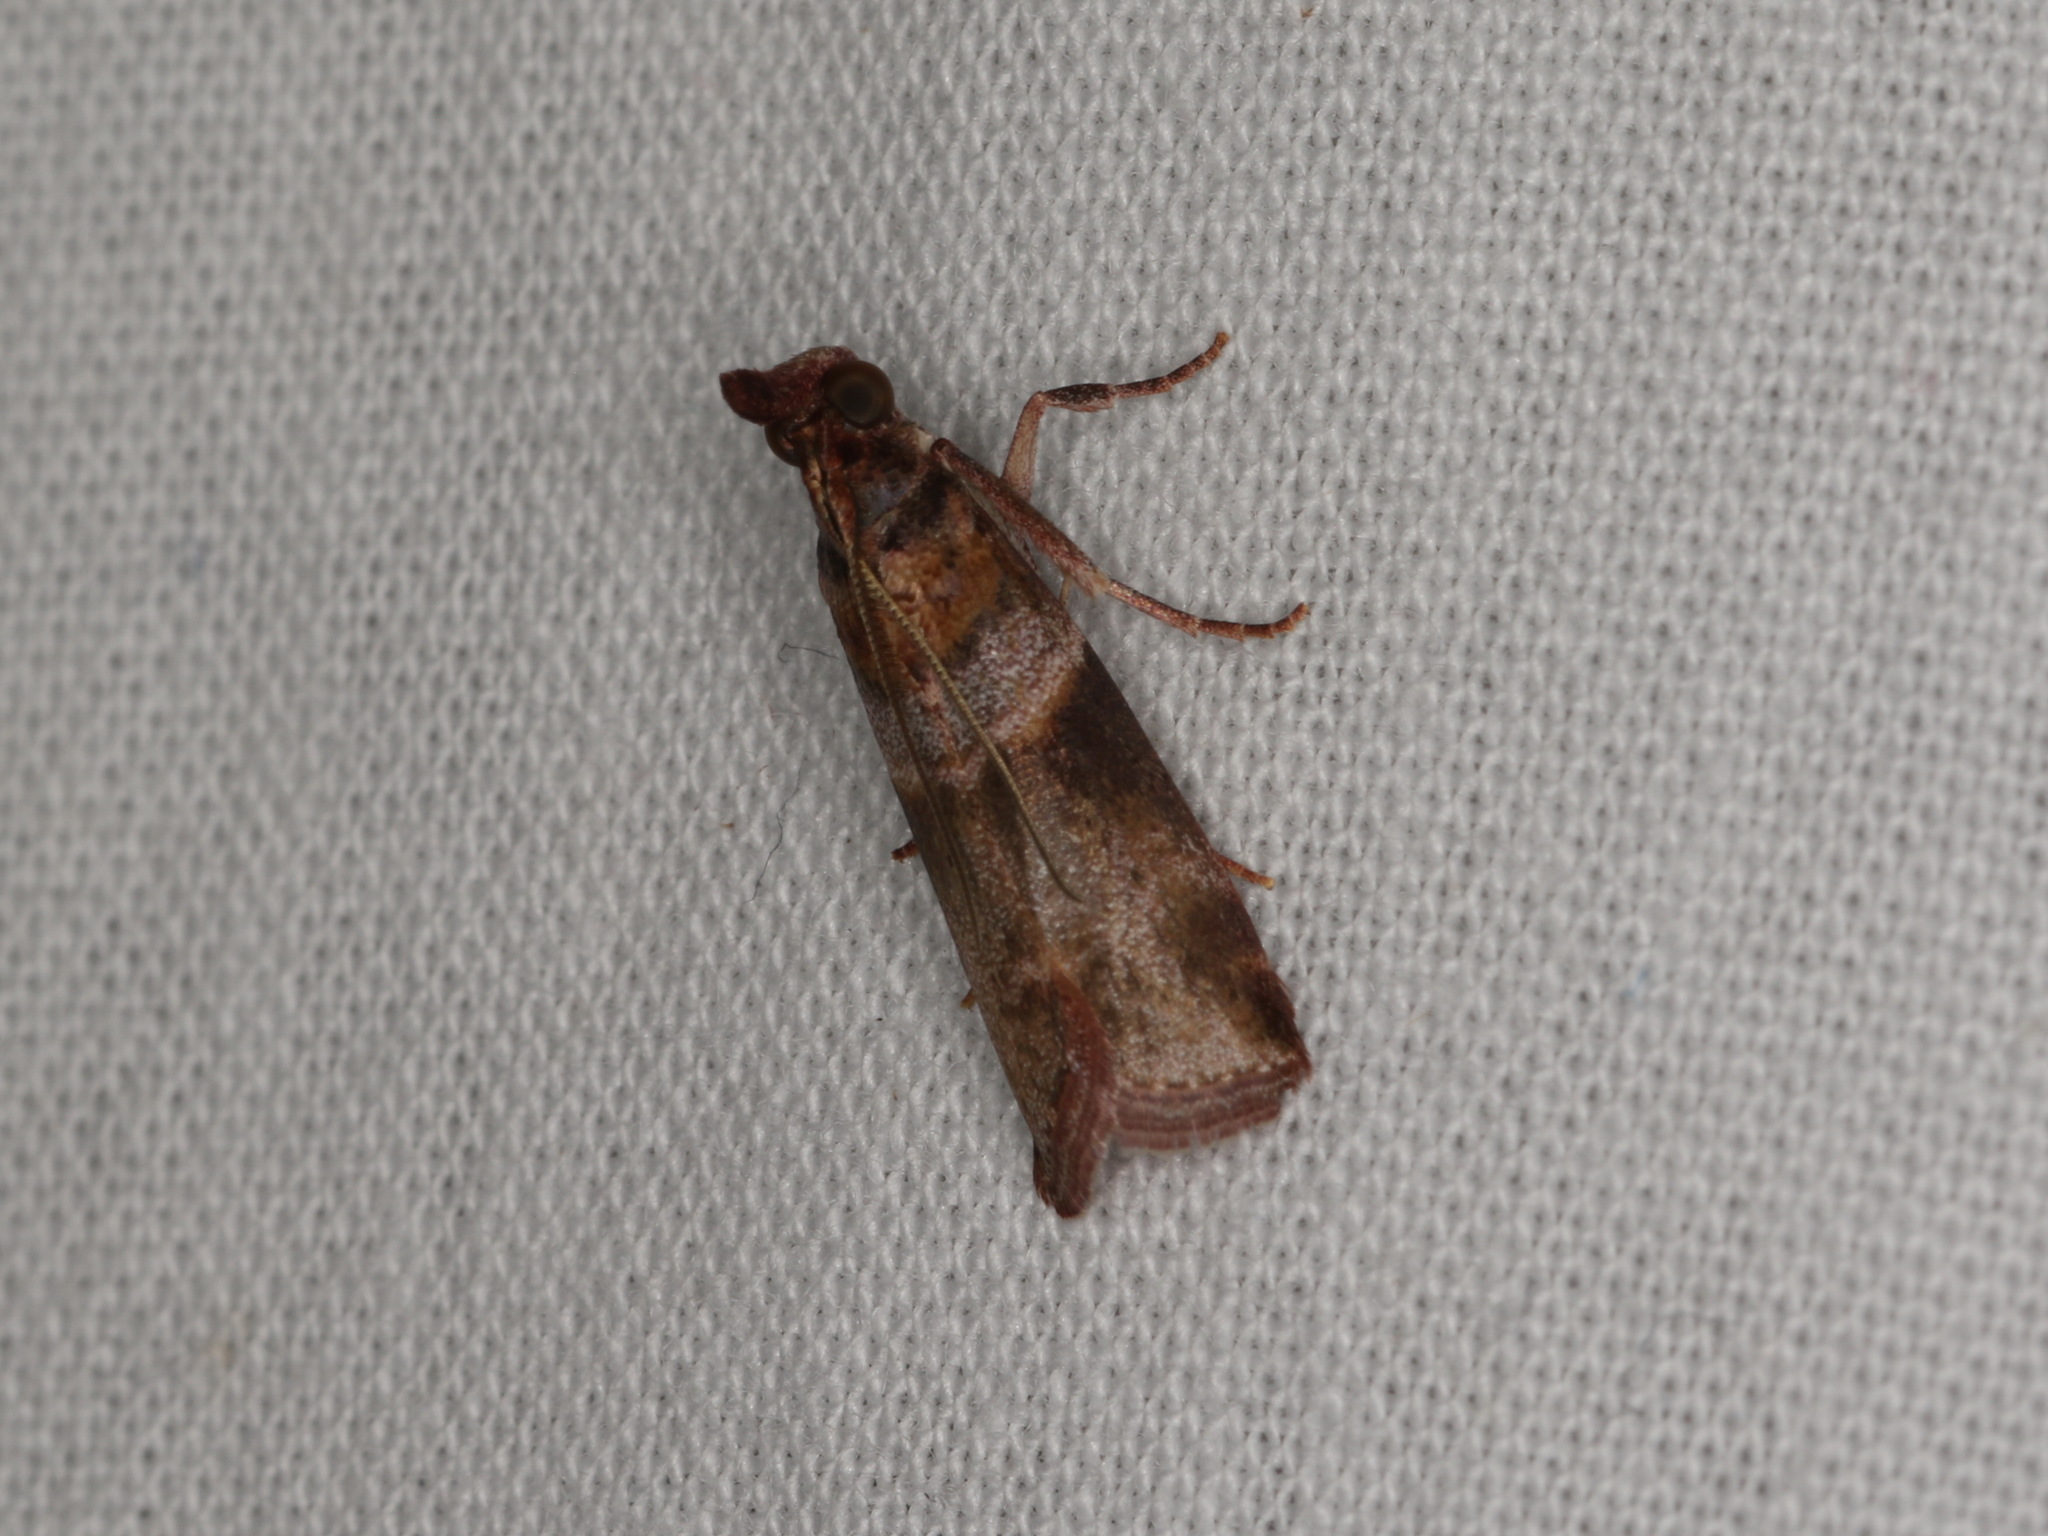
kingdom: Animalia
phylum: Arthropoda
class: Insecta
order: Lepidoptera
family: Pyralidae
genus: Calguia
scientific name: Calguia defiguralis
